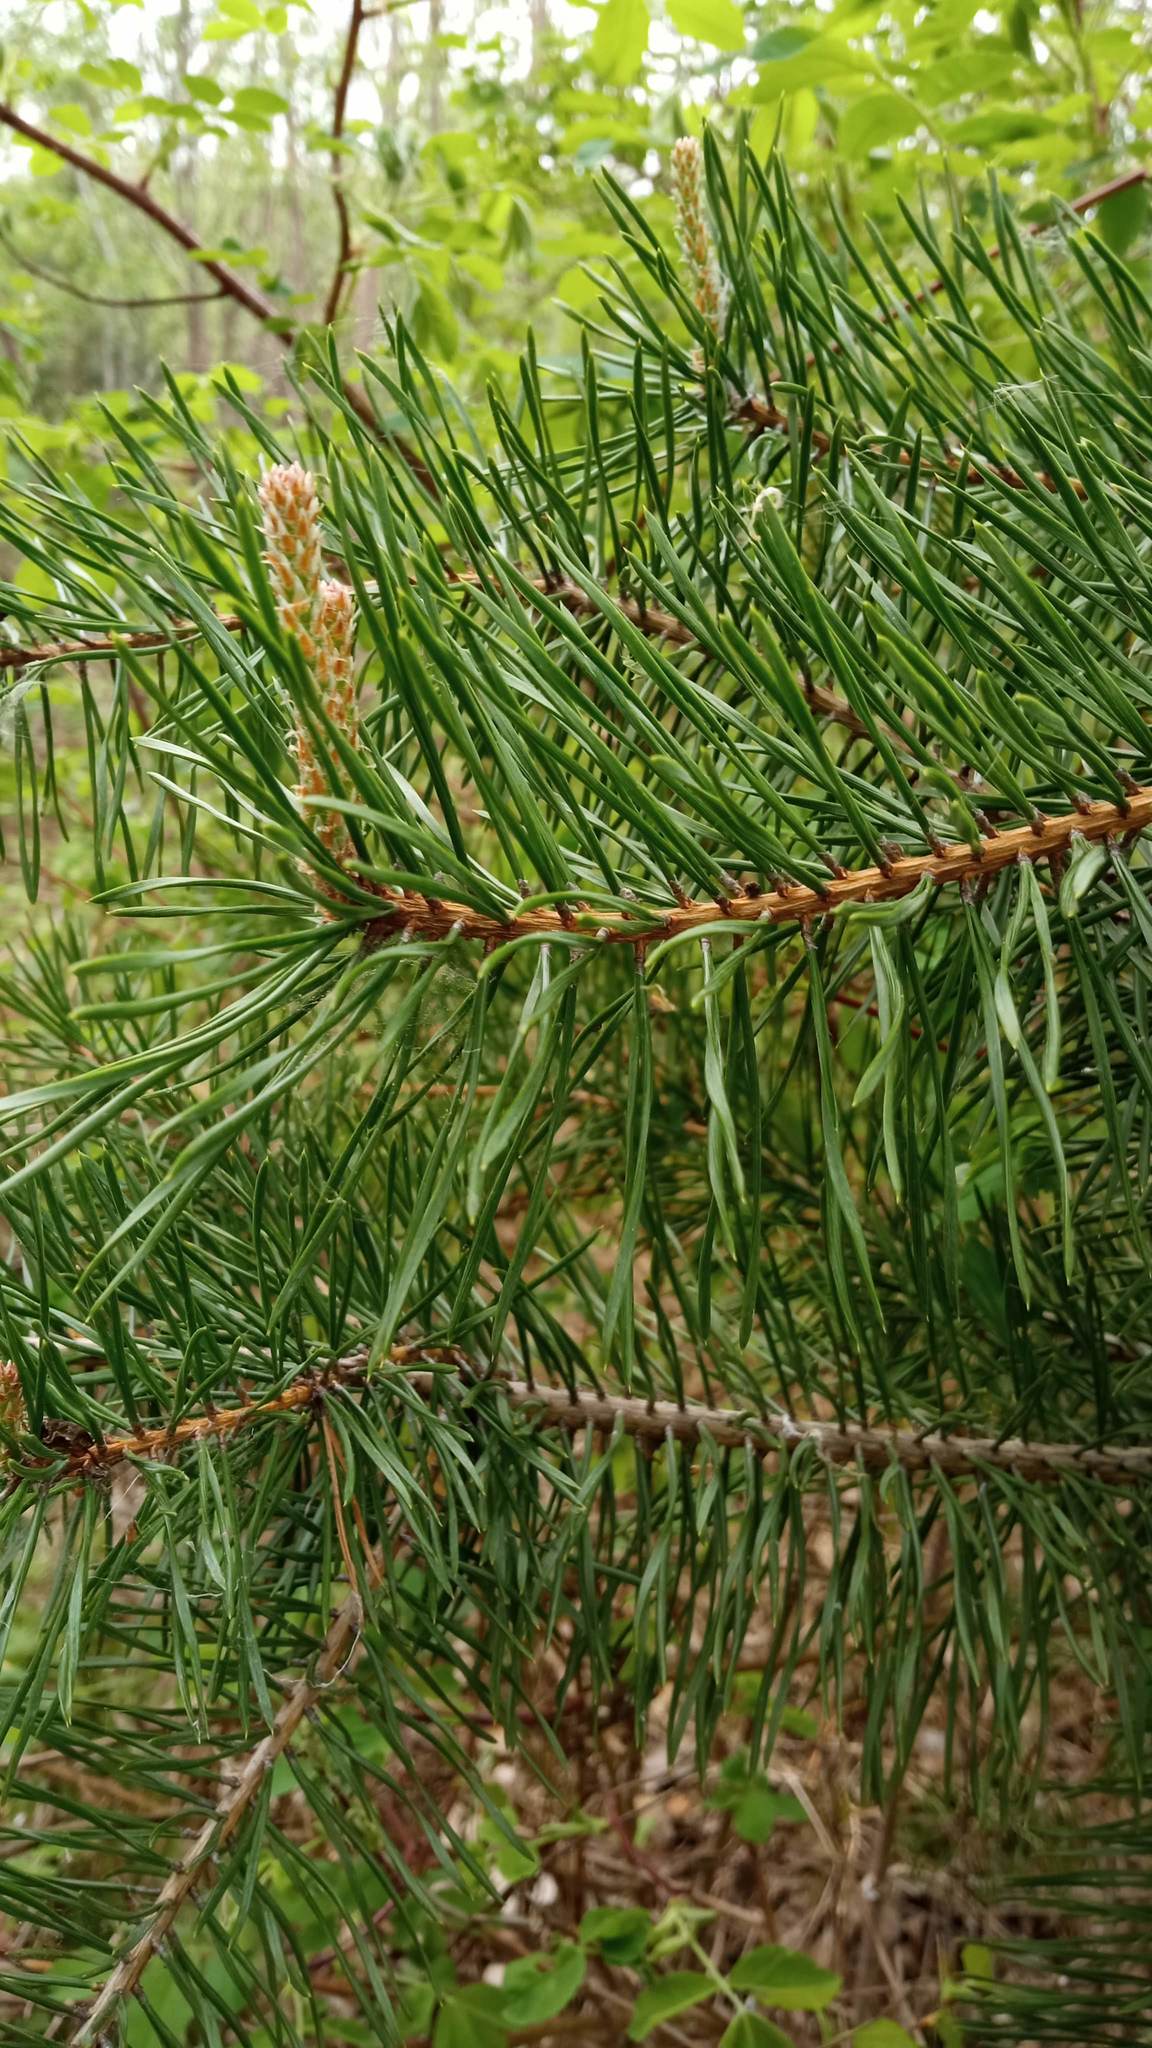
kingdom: Plantae
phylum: Tracheophyta
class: Pinopsida
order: Pinales
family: Pinaceae
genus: Pinus
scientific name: Pinus sylvestris
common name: Scots pine
